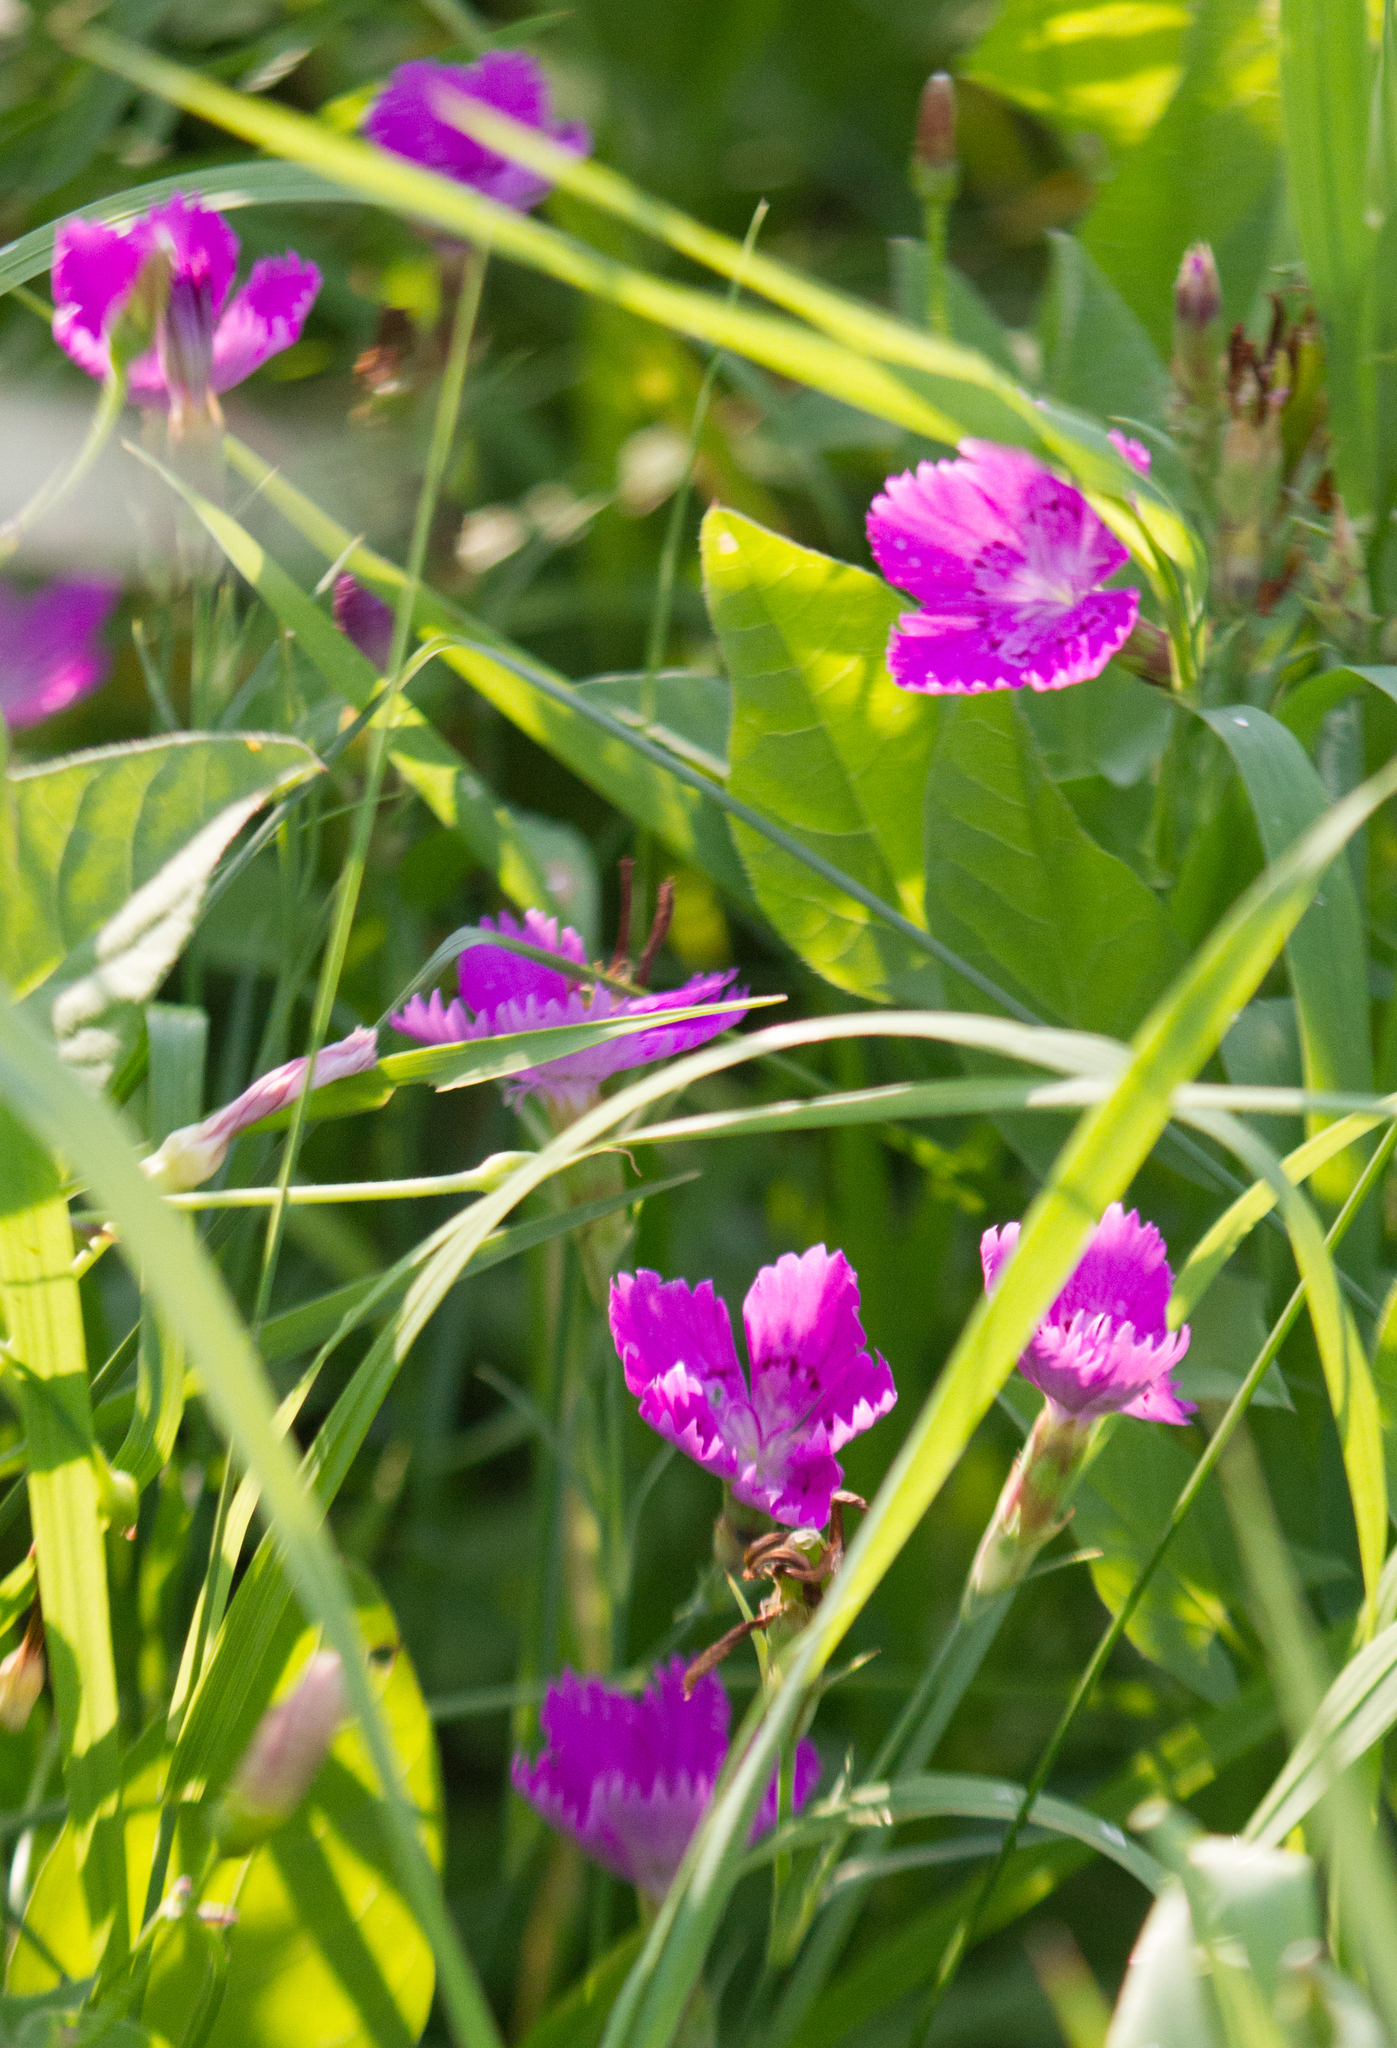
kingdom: Plantae
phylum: Tracheophyta
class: Magnoliopsida
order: Caryophyllales
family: Caryophyllaceae
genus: Dianthus
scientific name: Dianthus chinensis
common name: Rainbow pink
